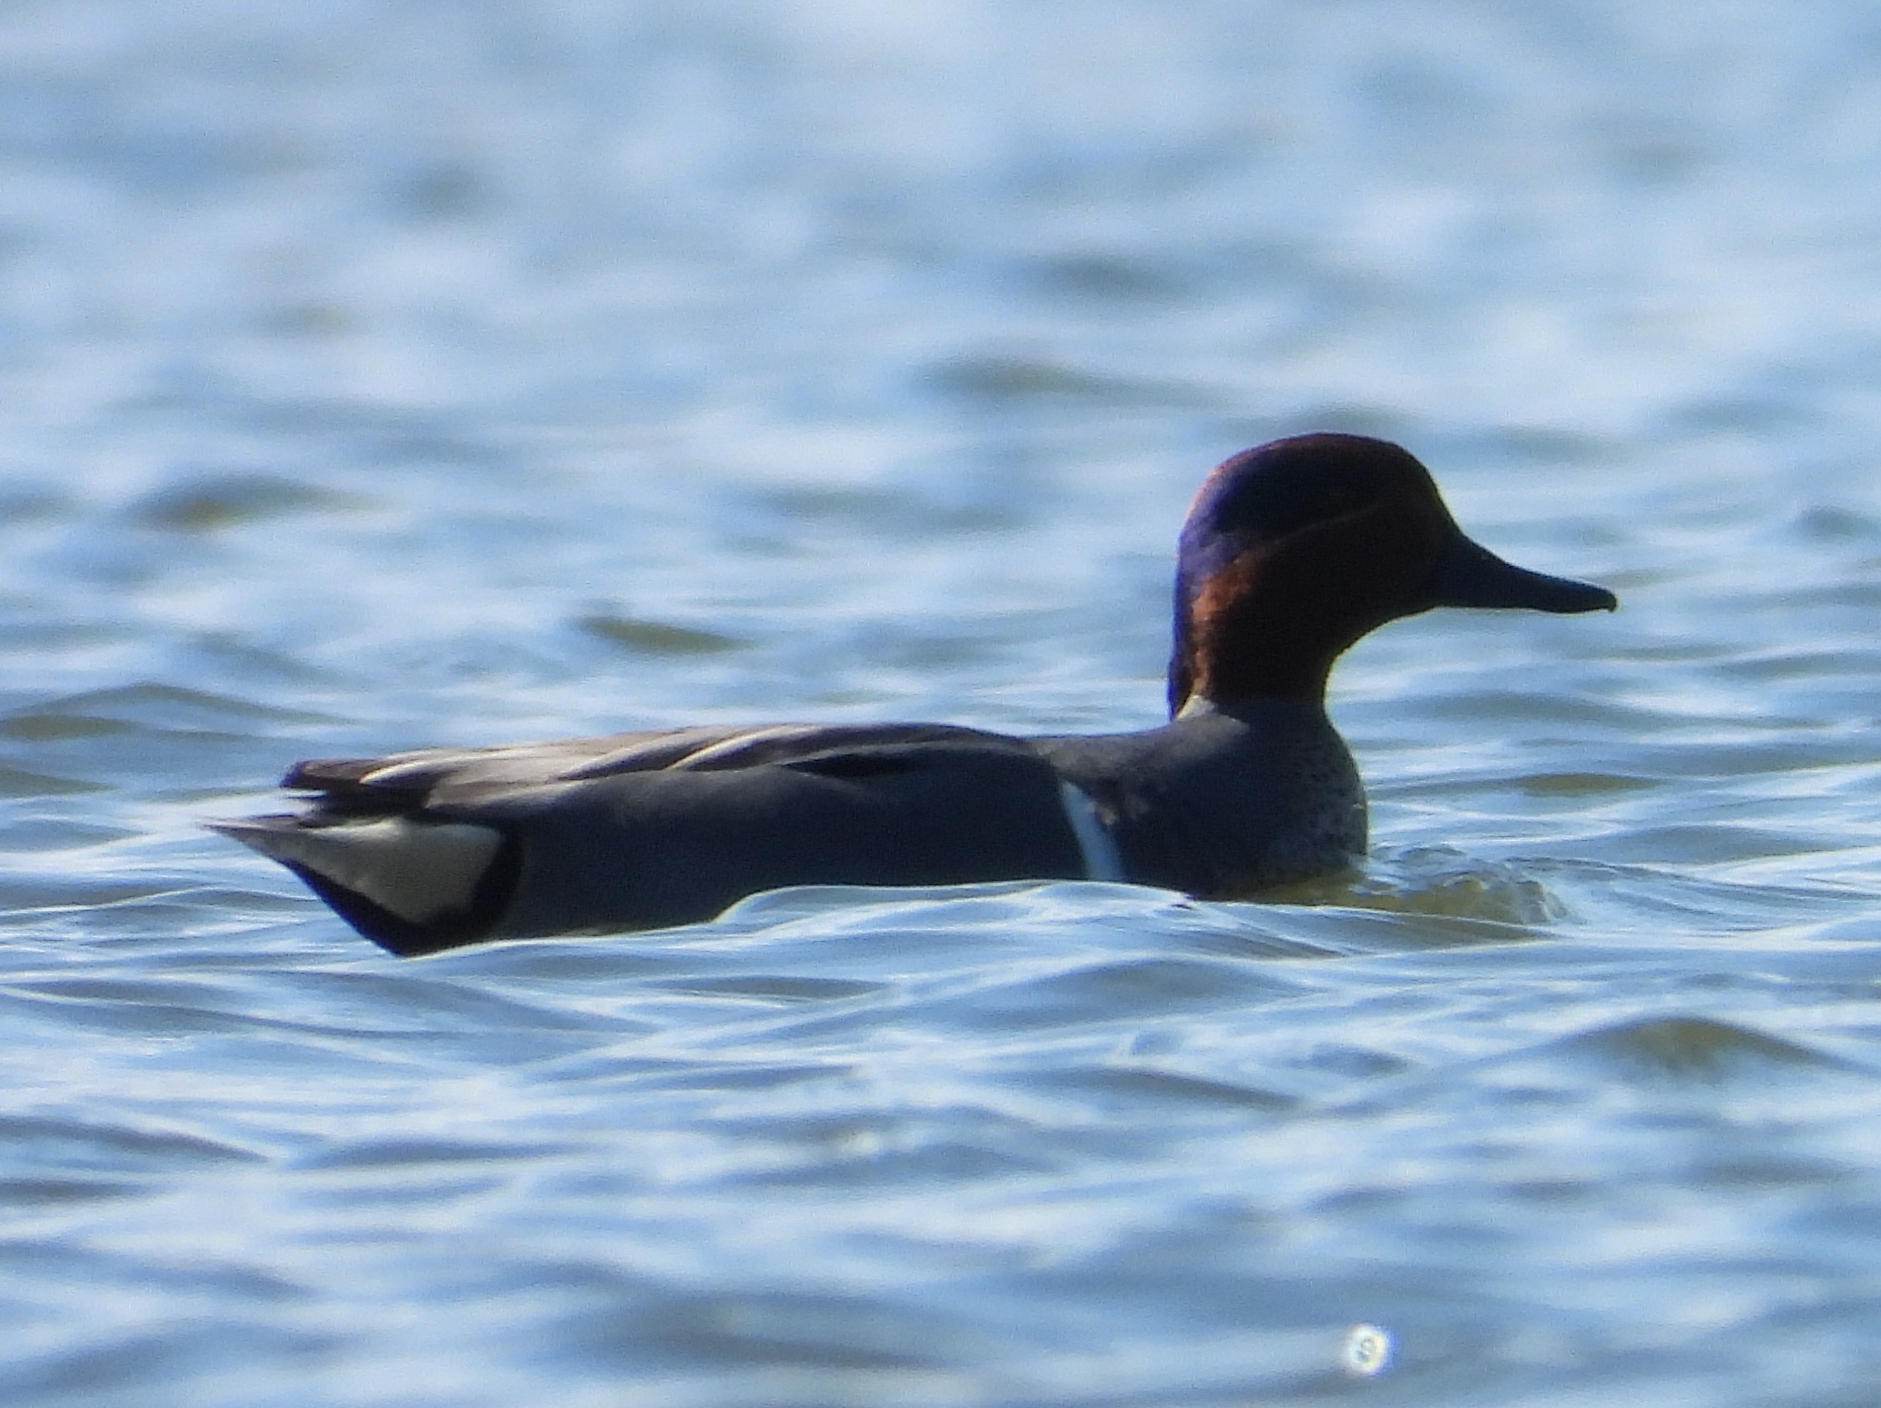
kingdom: Animalia
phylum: Chordata
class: Aves
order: Anseriformes
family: Anatidae
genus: Anas
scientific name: Anas crecca
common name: Eurasian teal
